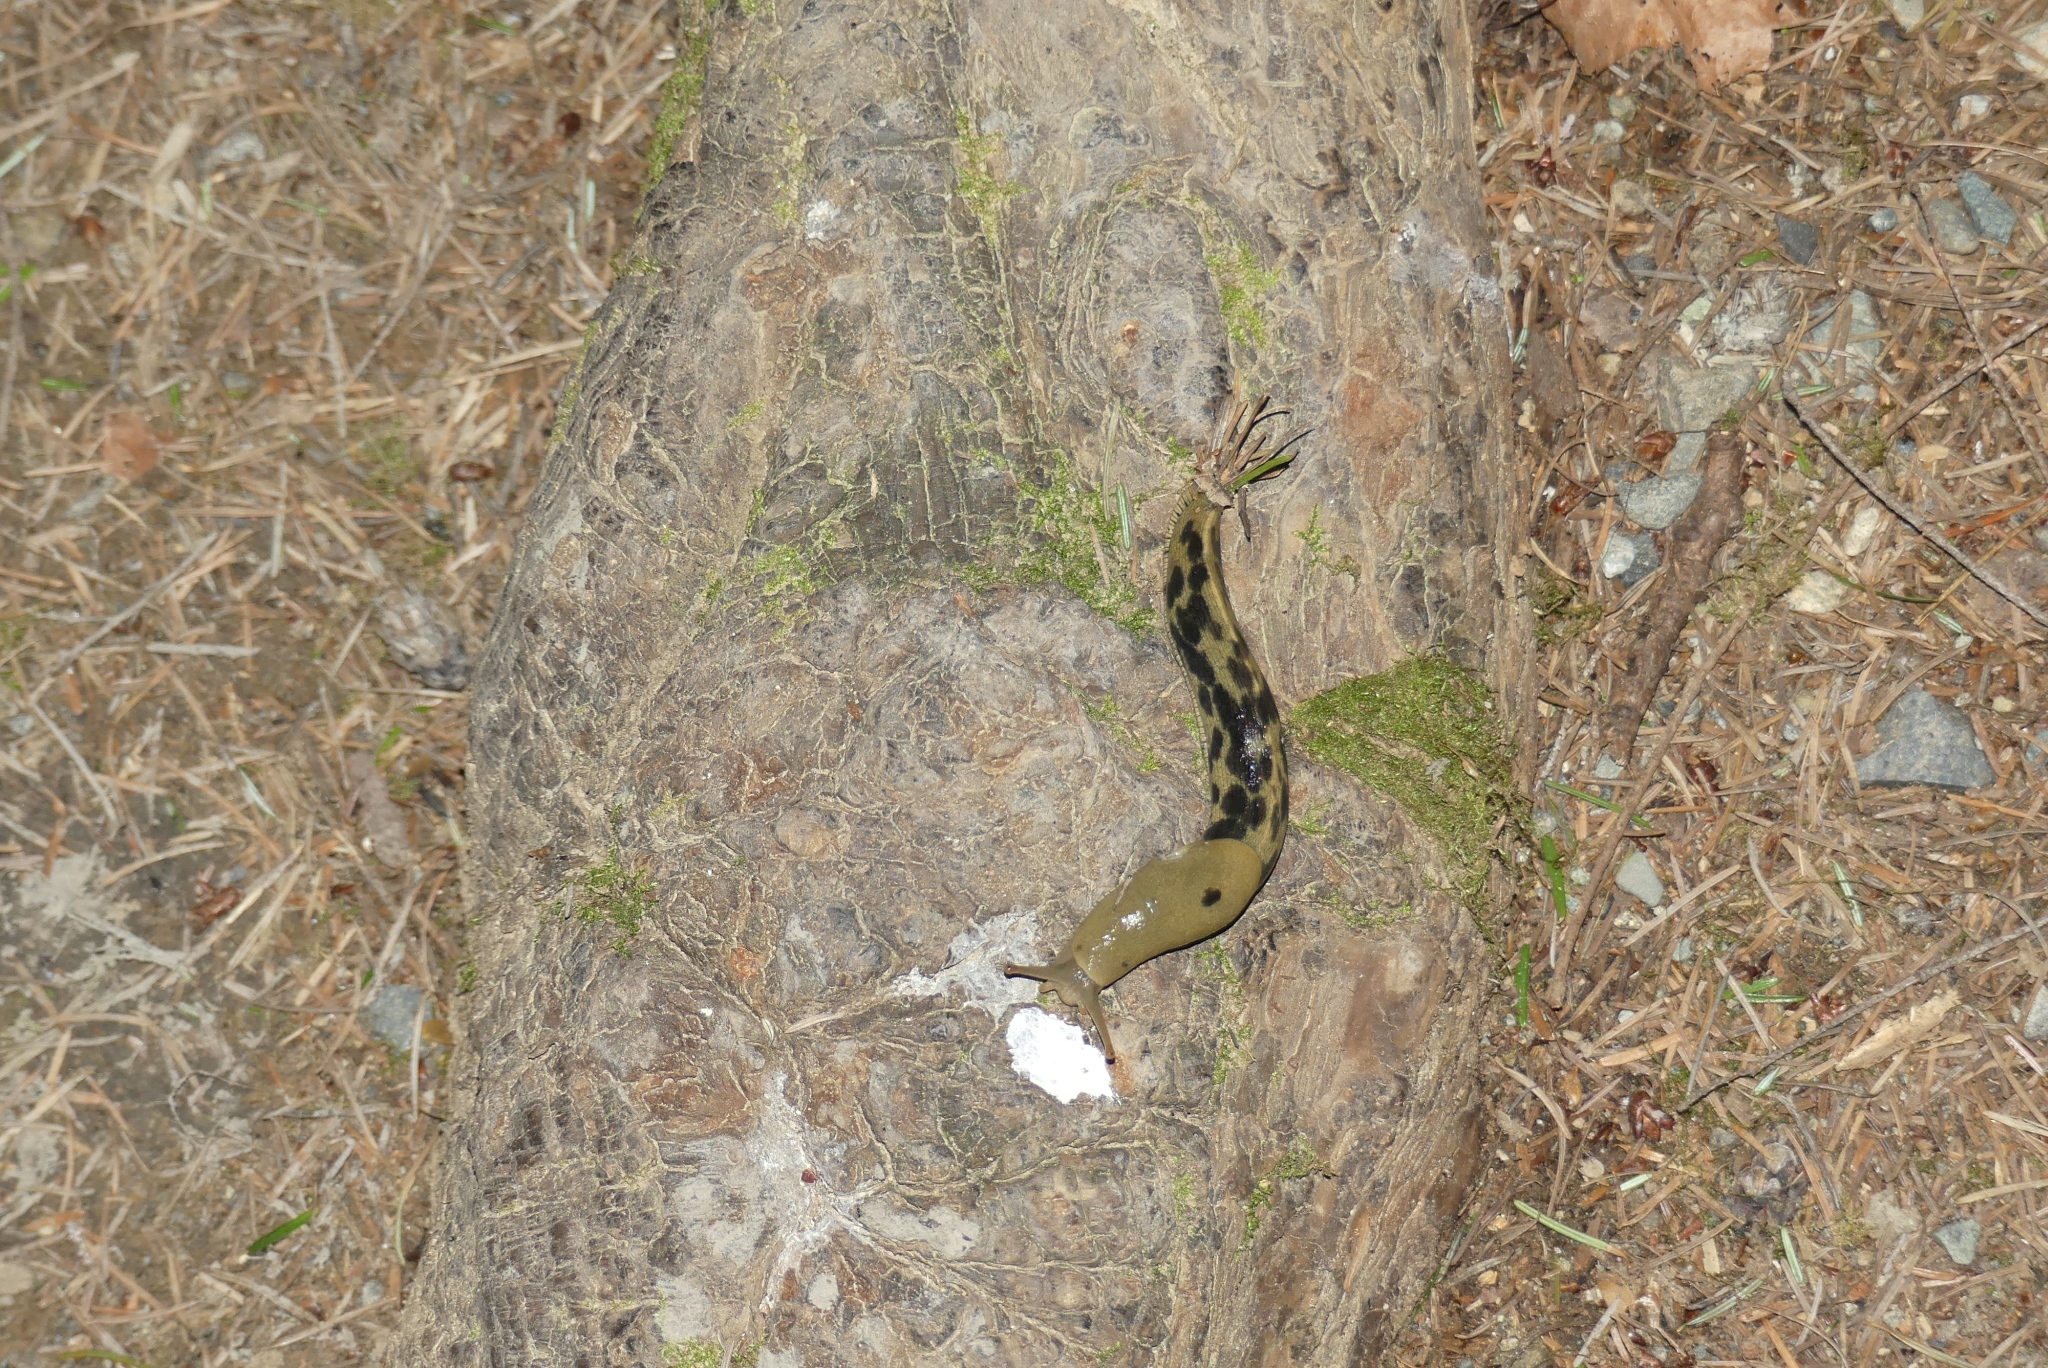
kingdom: Animalia
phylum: Mollusca
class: Gastropoda
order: Stylommatophora
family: Ariolimacidae
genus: Ariolimax
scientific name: Ariolimax columbianus
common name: Pacific banana slug
